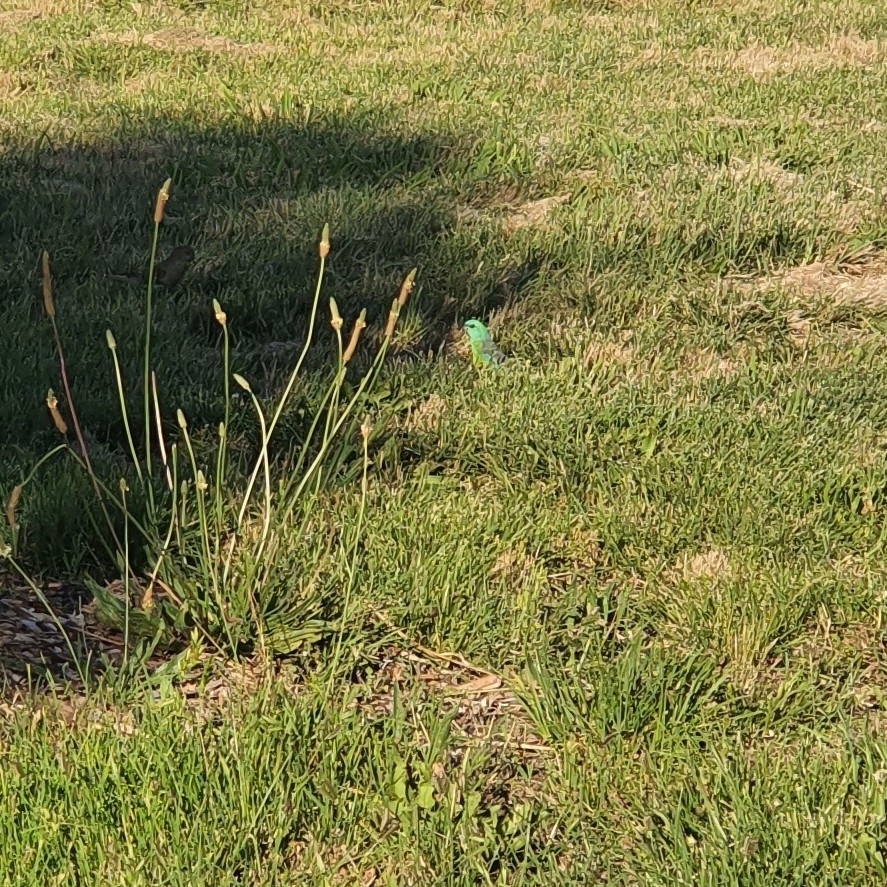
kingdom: Animalia
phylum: Chordata
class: Aves
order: Psittaciformes
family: Psittacidae
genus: Psephotus
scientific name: Psephotus haematonotus
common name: Red-rumped parrot
